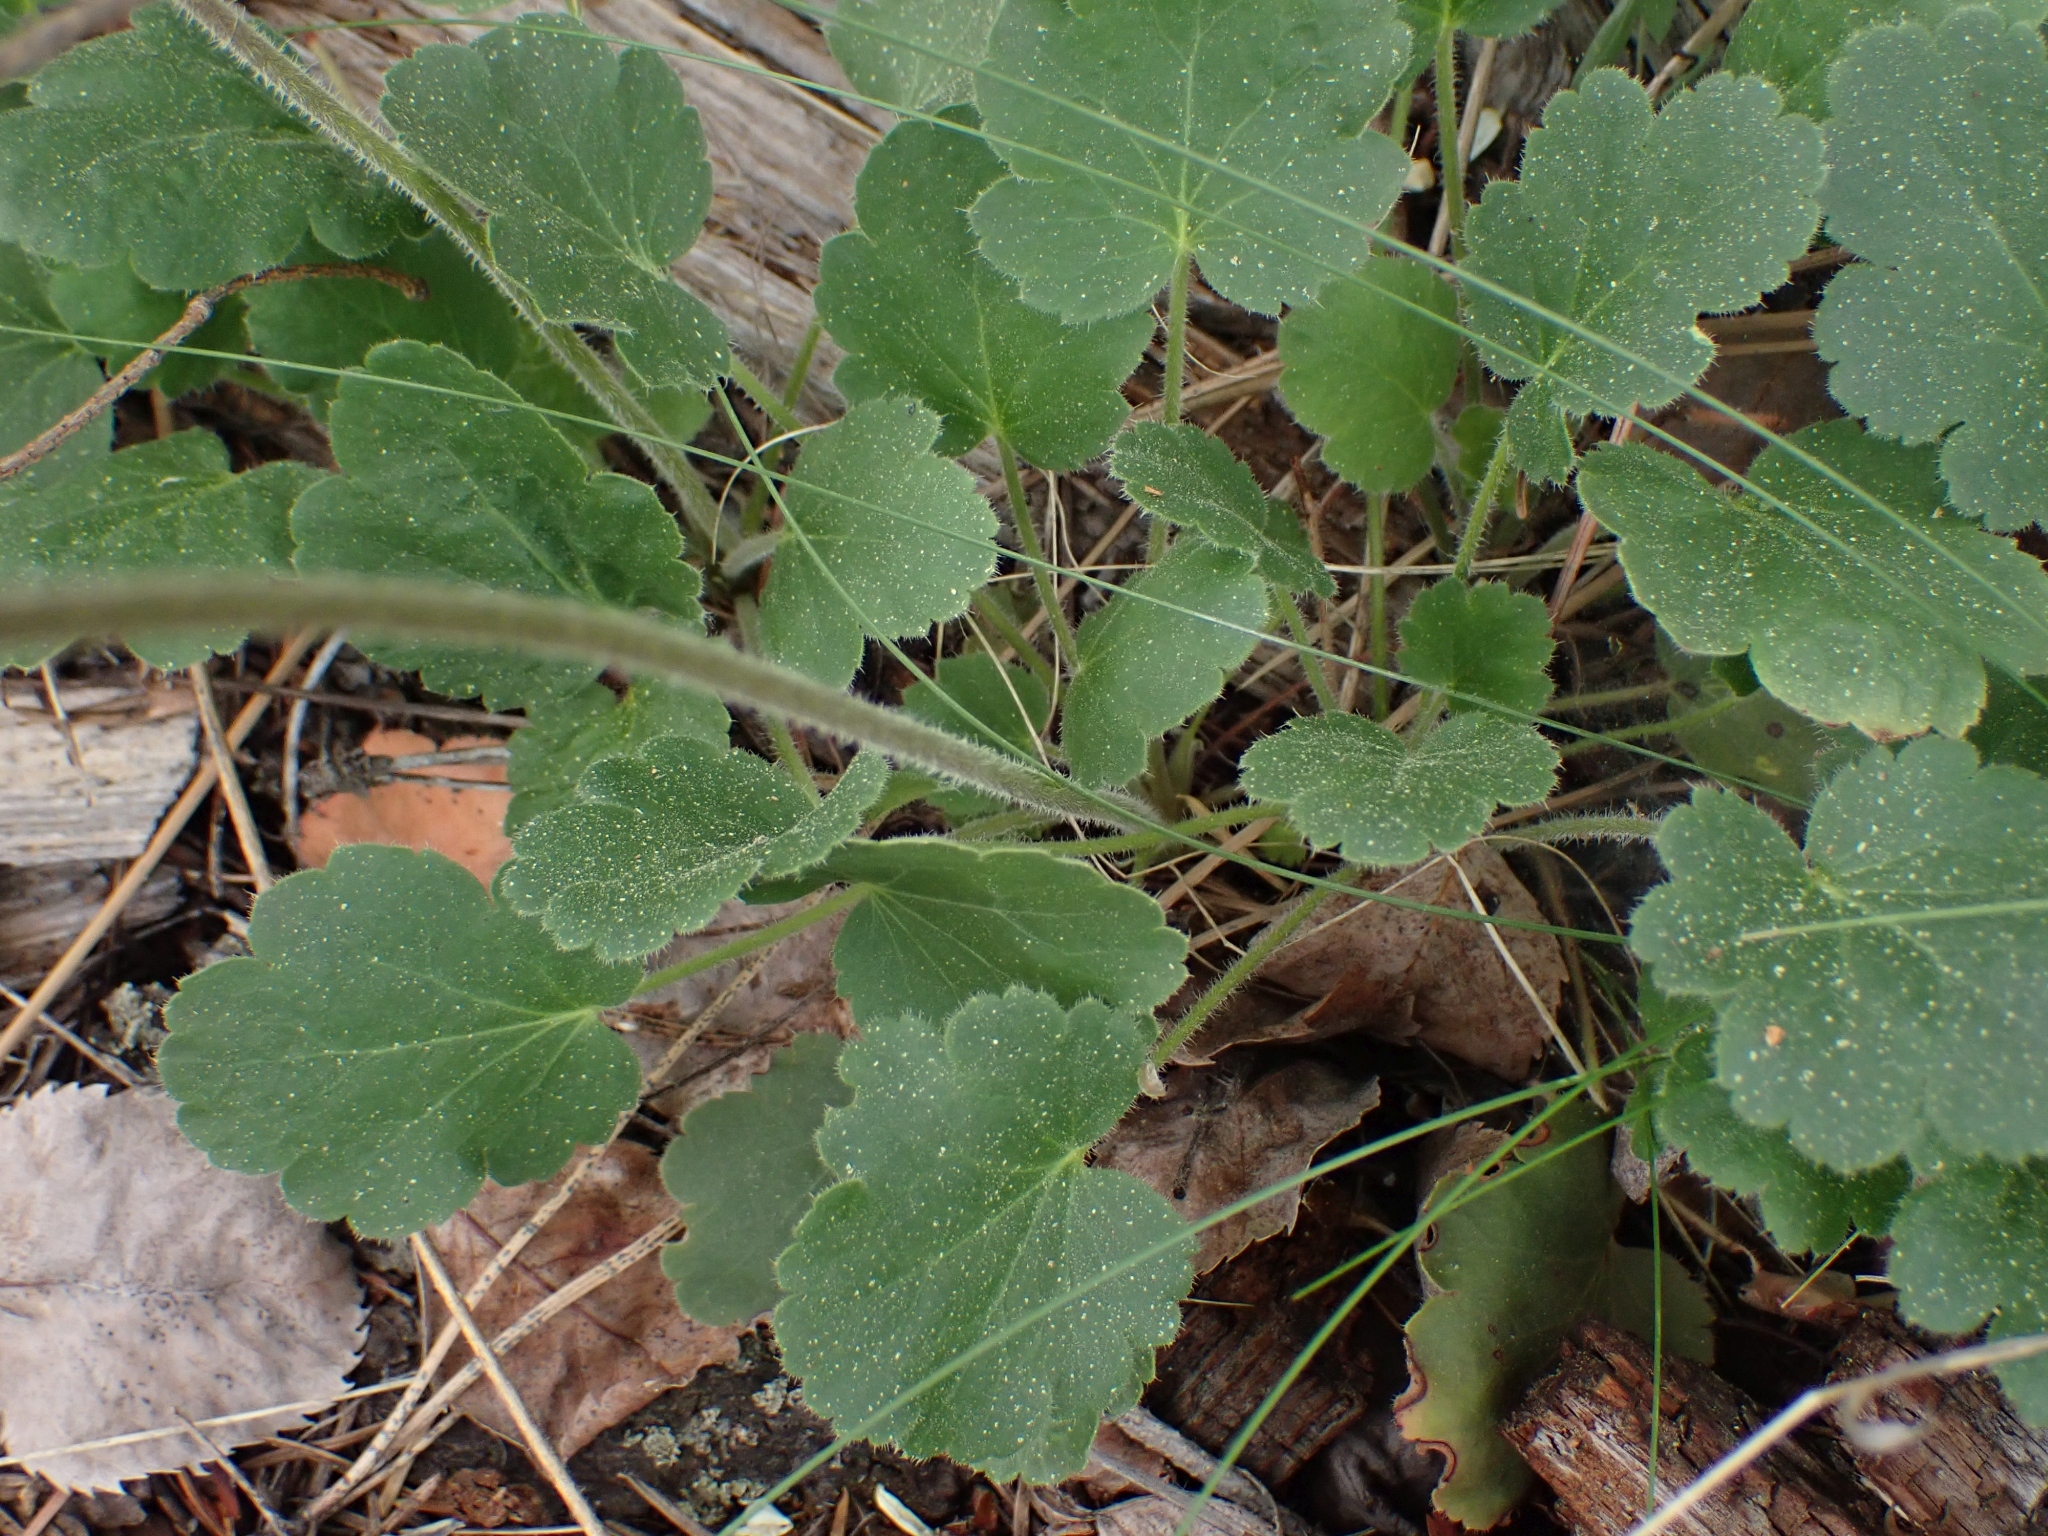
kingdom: Plantae
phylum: Tracheophyta
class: Magnoliopsida
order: Saxifragales
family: Saxifragaceae
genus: Heuchera
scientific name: Heuchera cylindrica
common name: Mat alumroot
